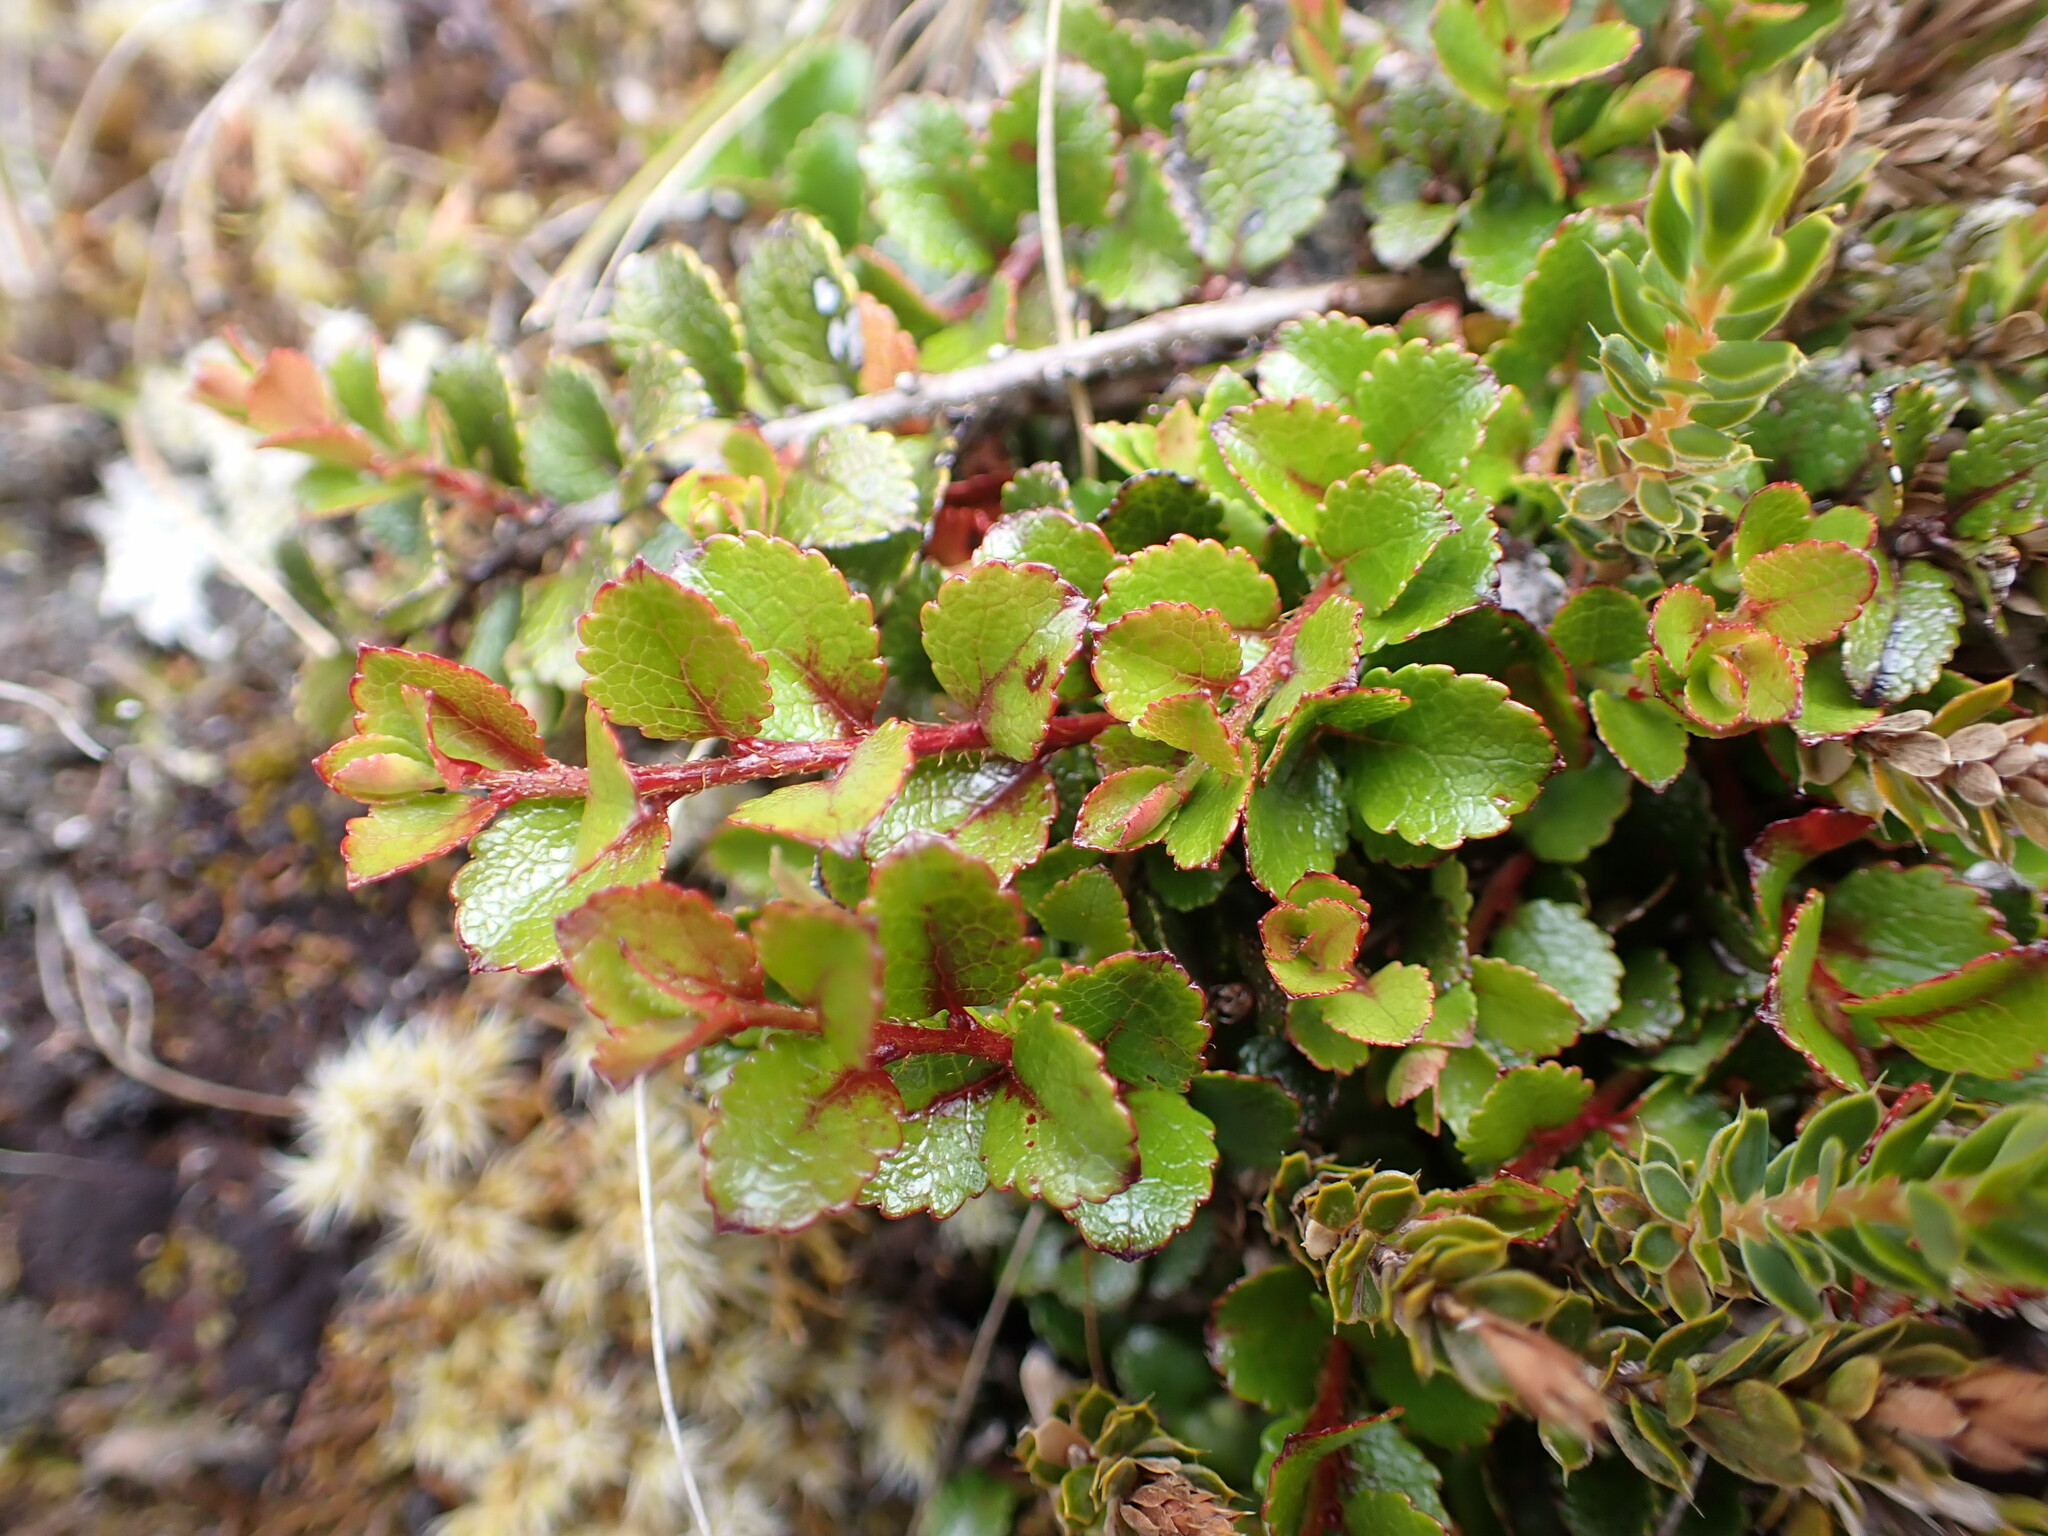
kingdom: Plantae
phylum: Tracheophyta
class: Magnoliopsida
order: Ericales
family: Ericaceae
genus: Gaultheria
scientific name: Gaultheria depressa
